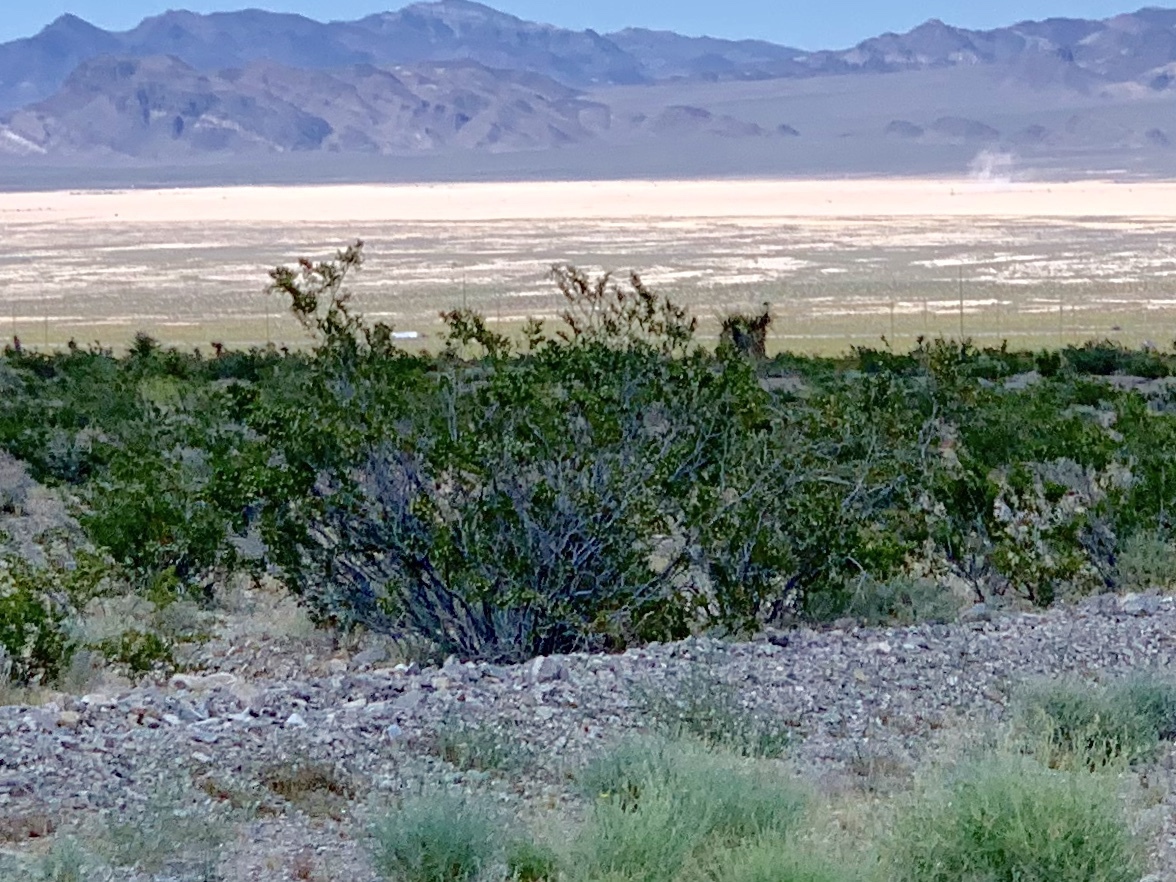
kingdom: Plantae
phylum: Tracheophyta
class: Magnoliopsida
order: Zygophyllales
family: Zygophyllaceae
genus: Larrea
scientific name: Larrea tridentata
